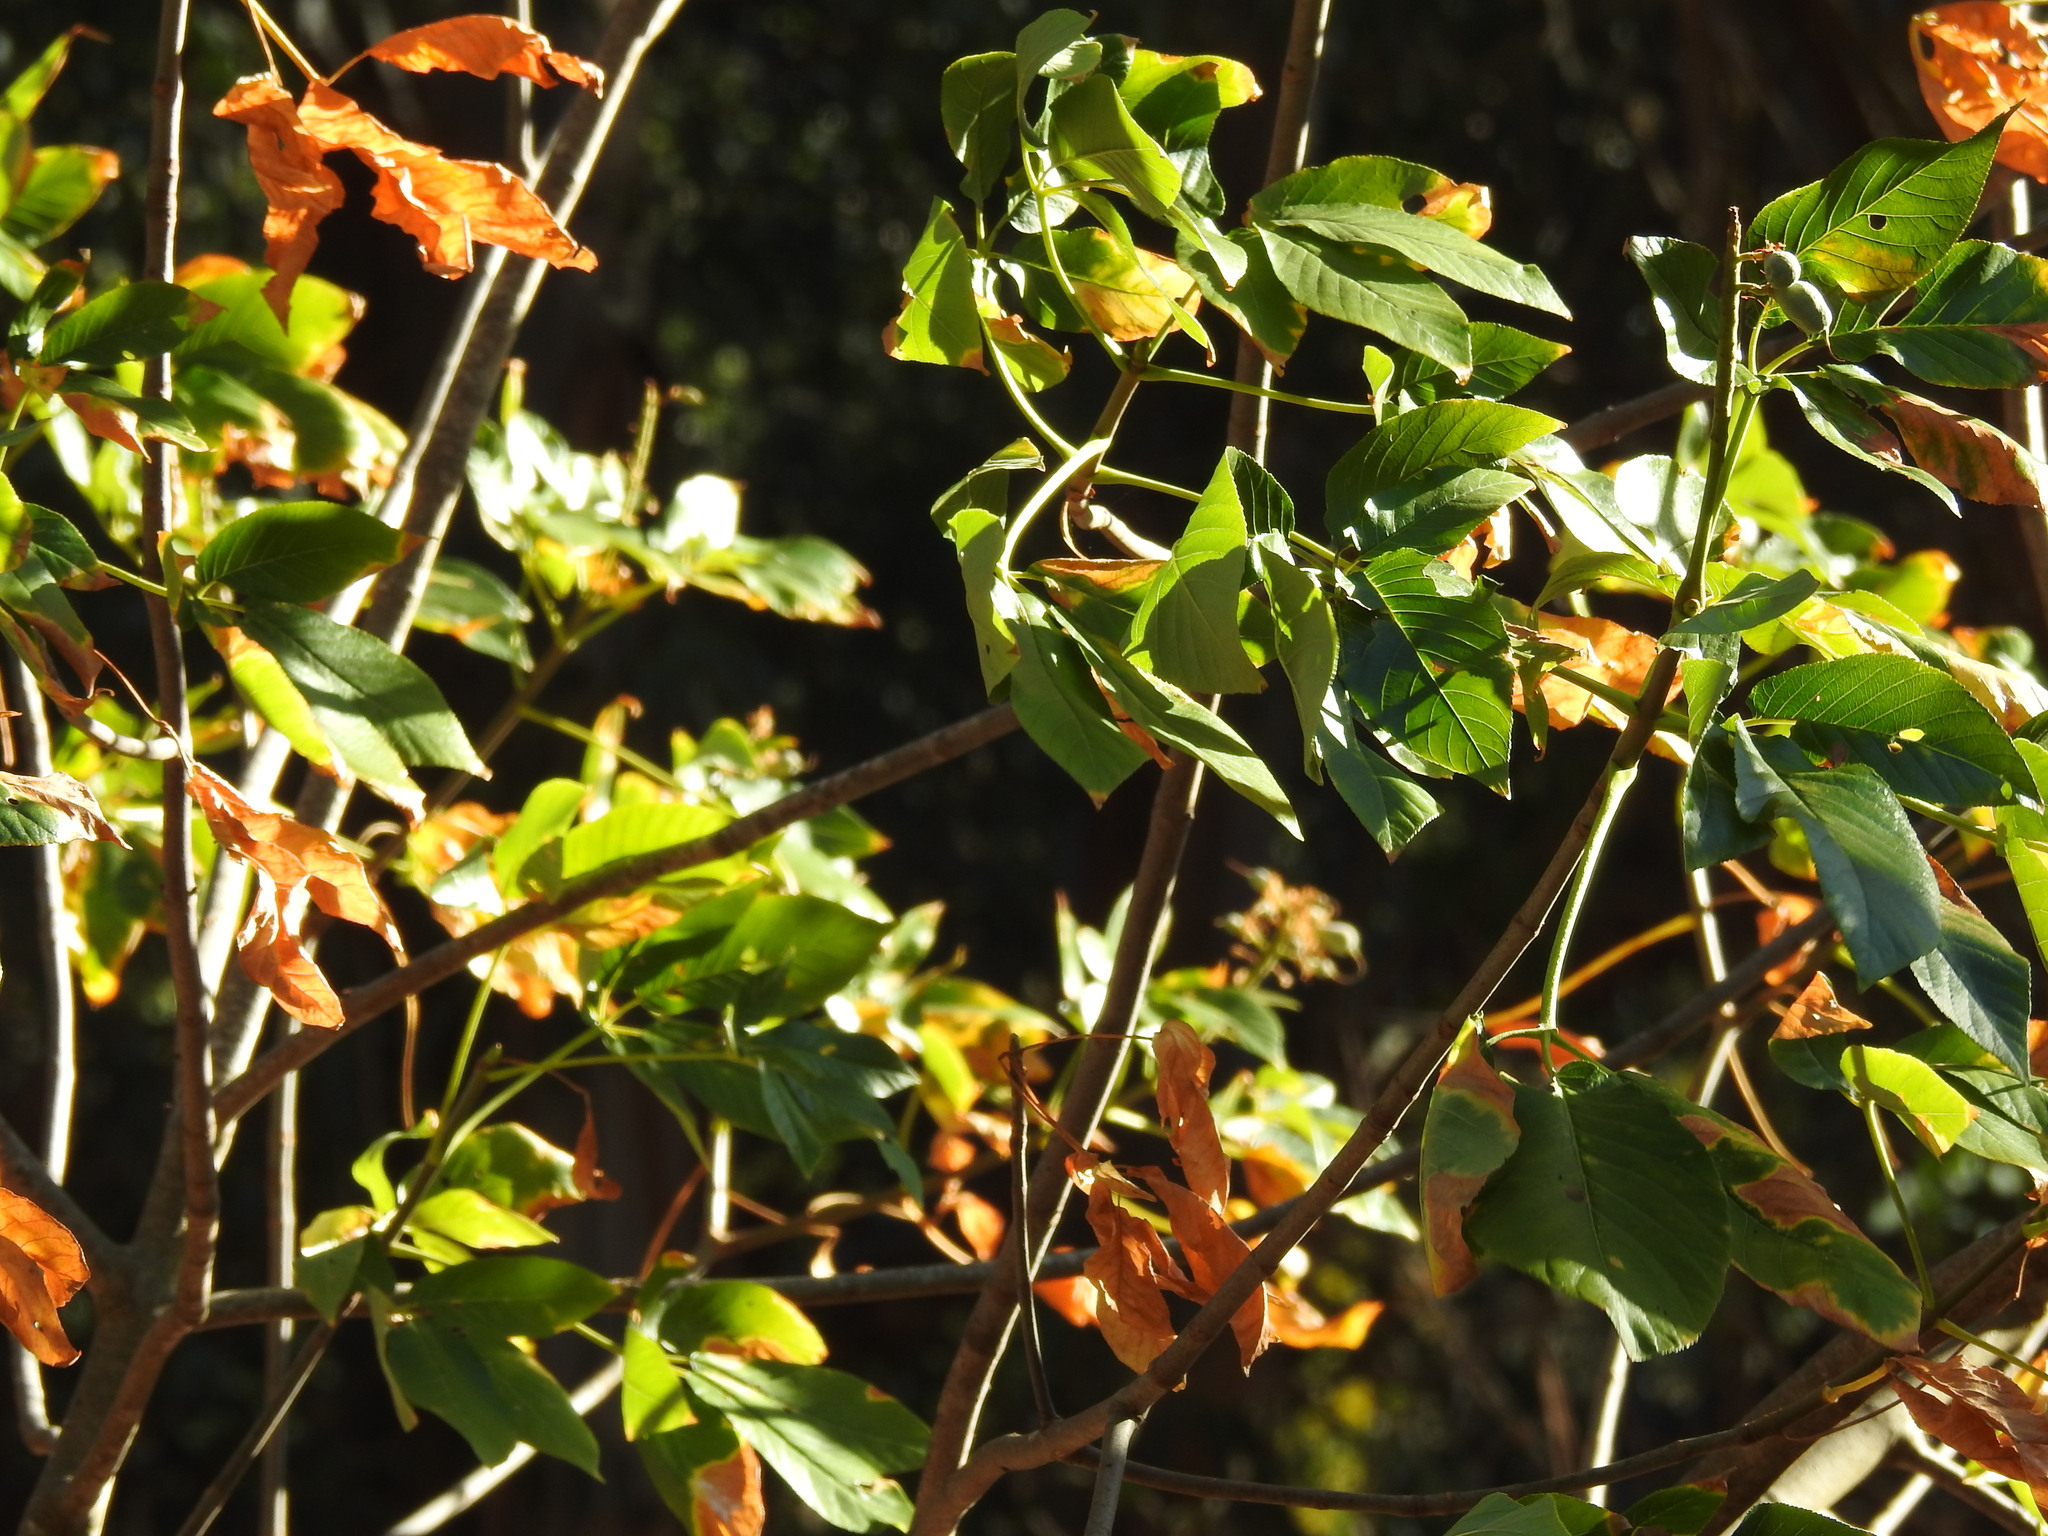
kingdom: Plantae
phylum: Tracheophyta
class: Magnoliopsida
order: Sapindales
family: Sapindaceae
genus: Aesculus
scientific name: Aesculus californica
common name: California buckeye
